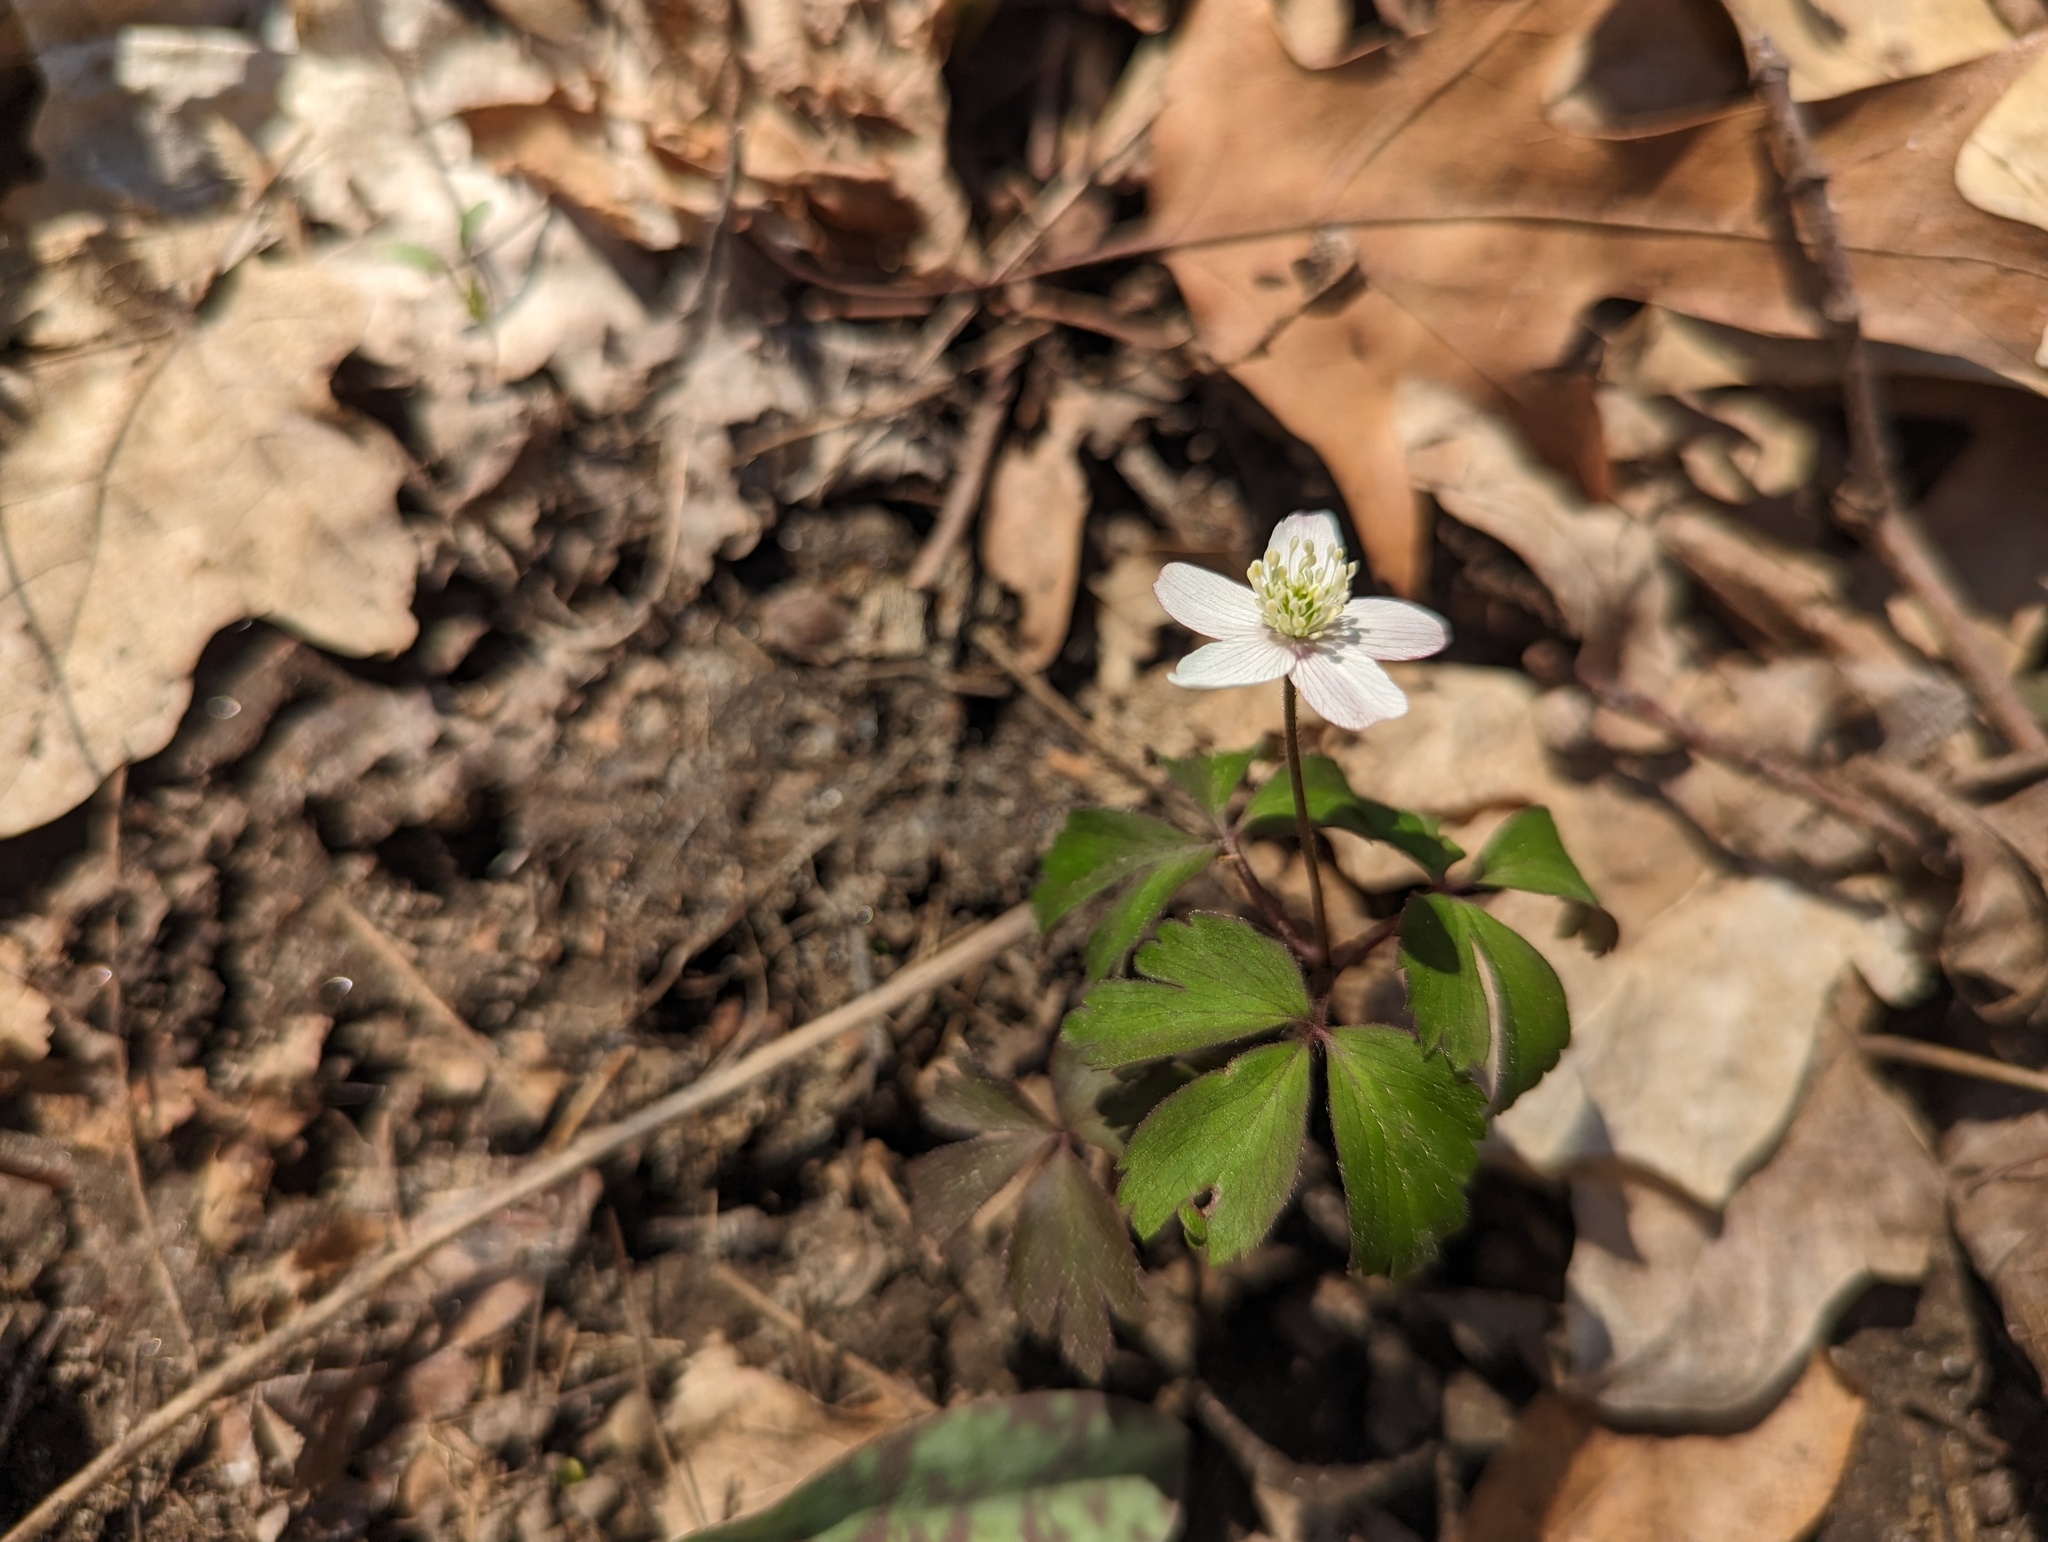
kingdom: Plantae
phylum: Tracheophyta
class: Magnoliopsida
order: Ranunculales
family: Ranunculaceae
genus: Anemone
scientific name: Anemone quinquefolia
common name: Wood anemone
